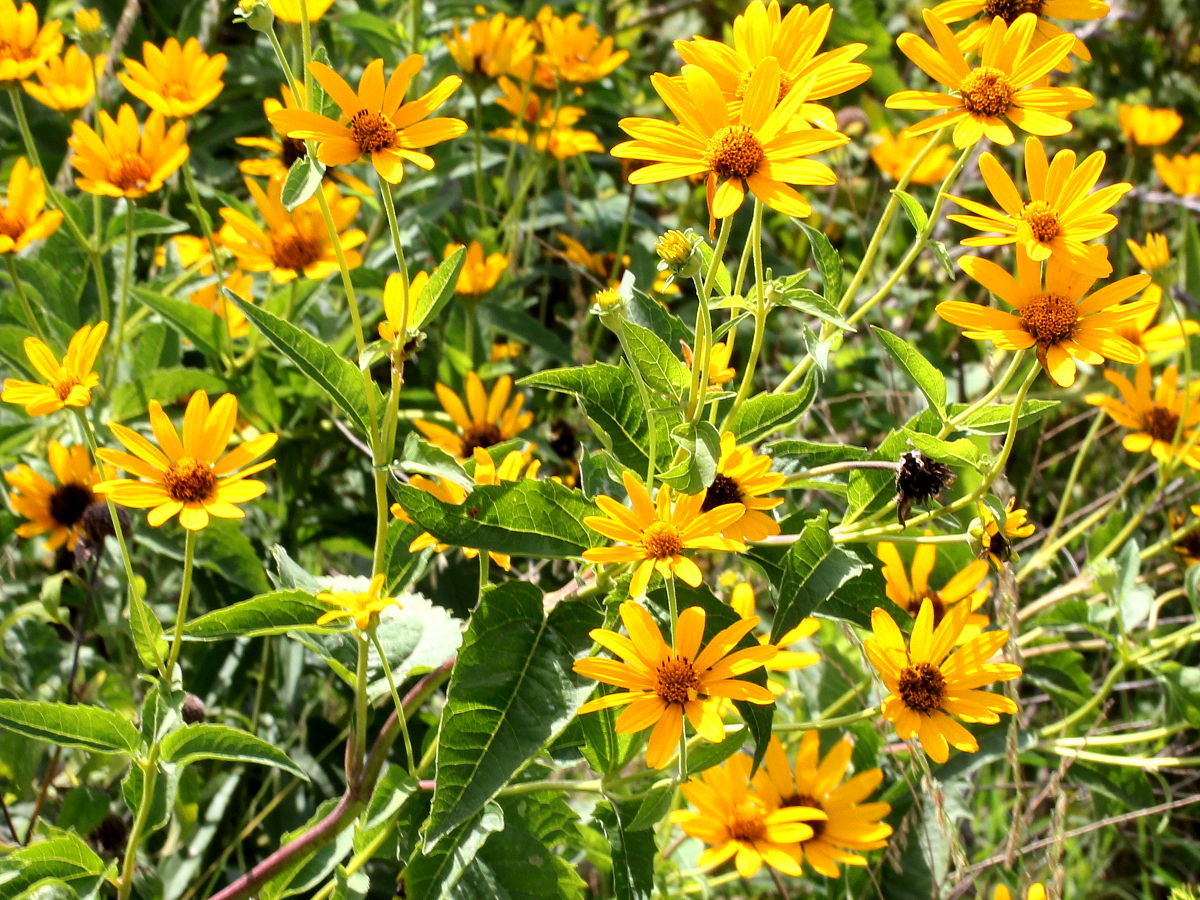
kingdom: Plantae
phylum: Tracheophyta
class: Magnoliopsida
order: Asterales
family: Asteraceae
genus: Heliopsis
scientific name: Heliopsis helianthoides
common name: False sunflower
